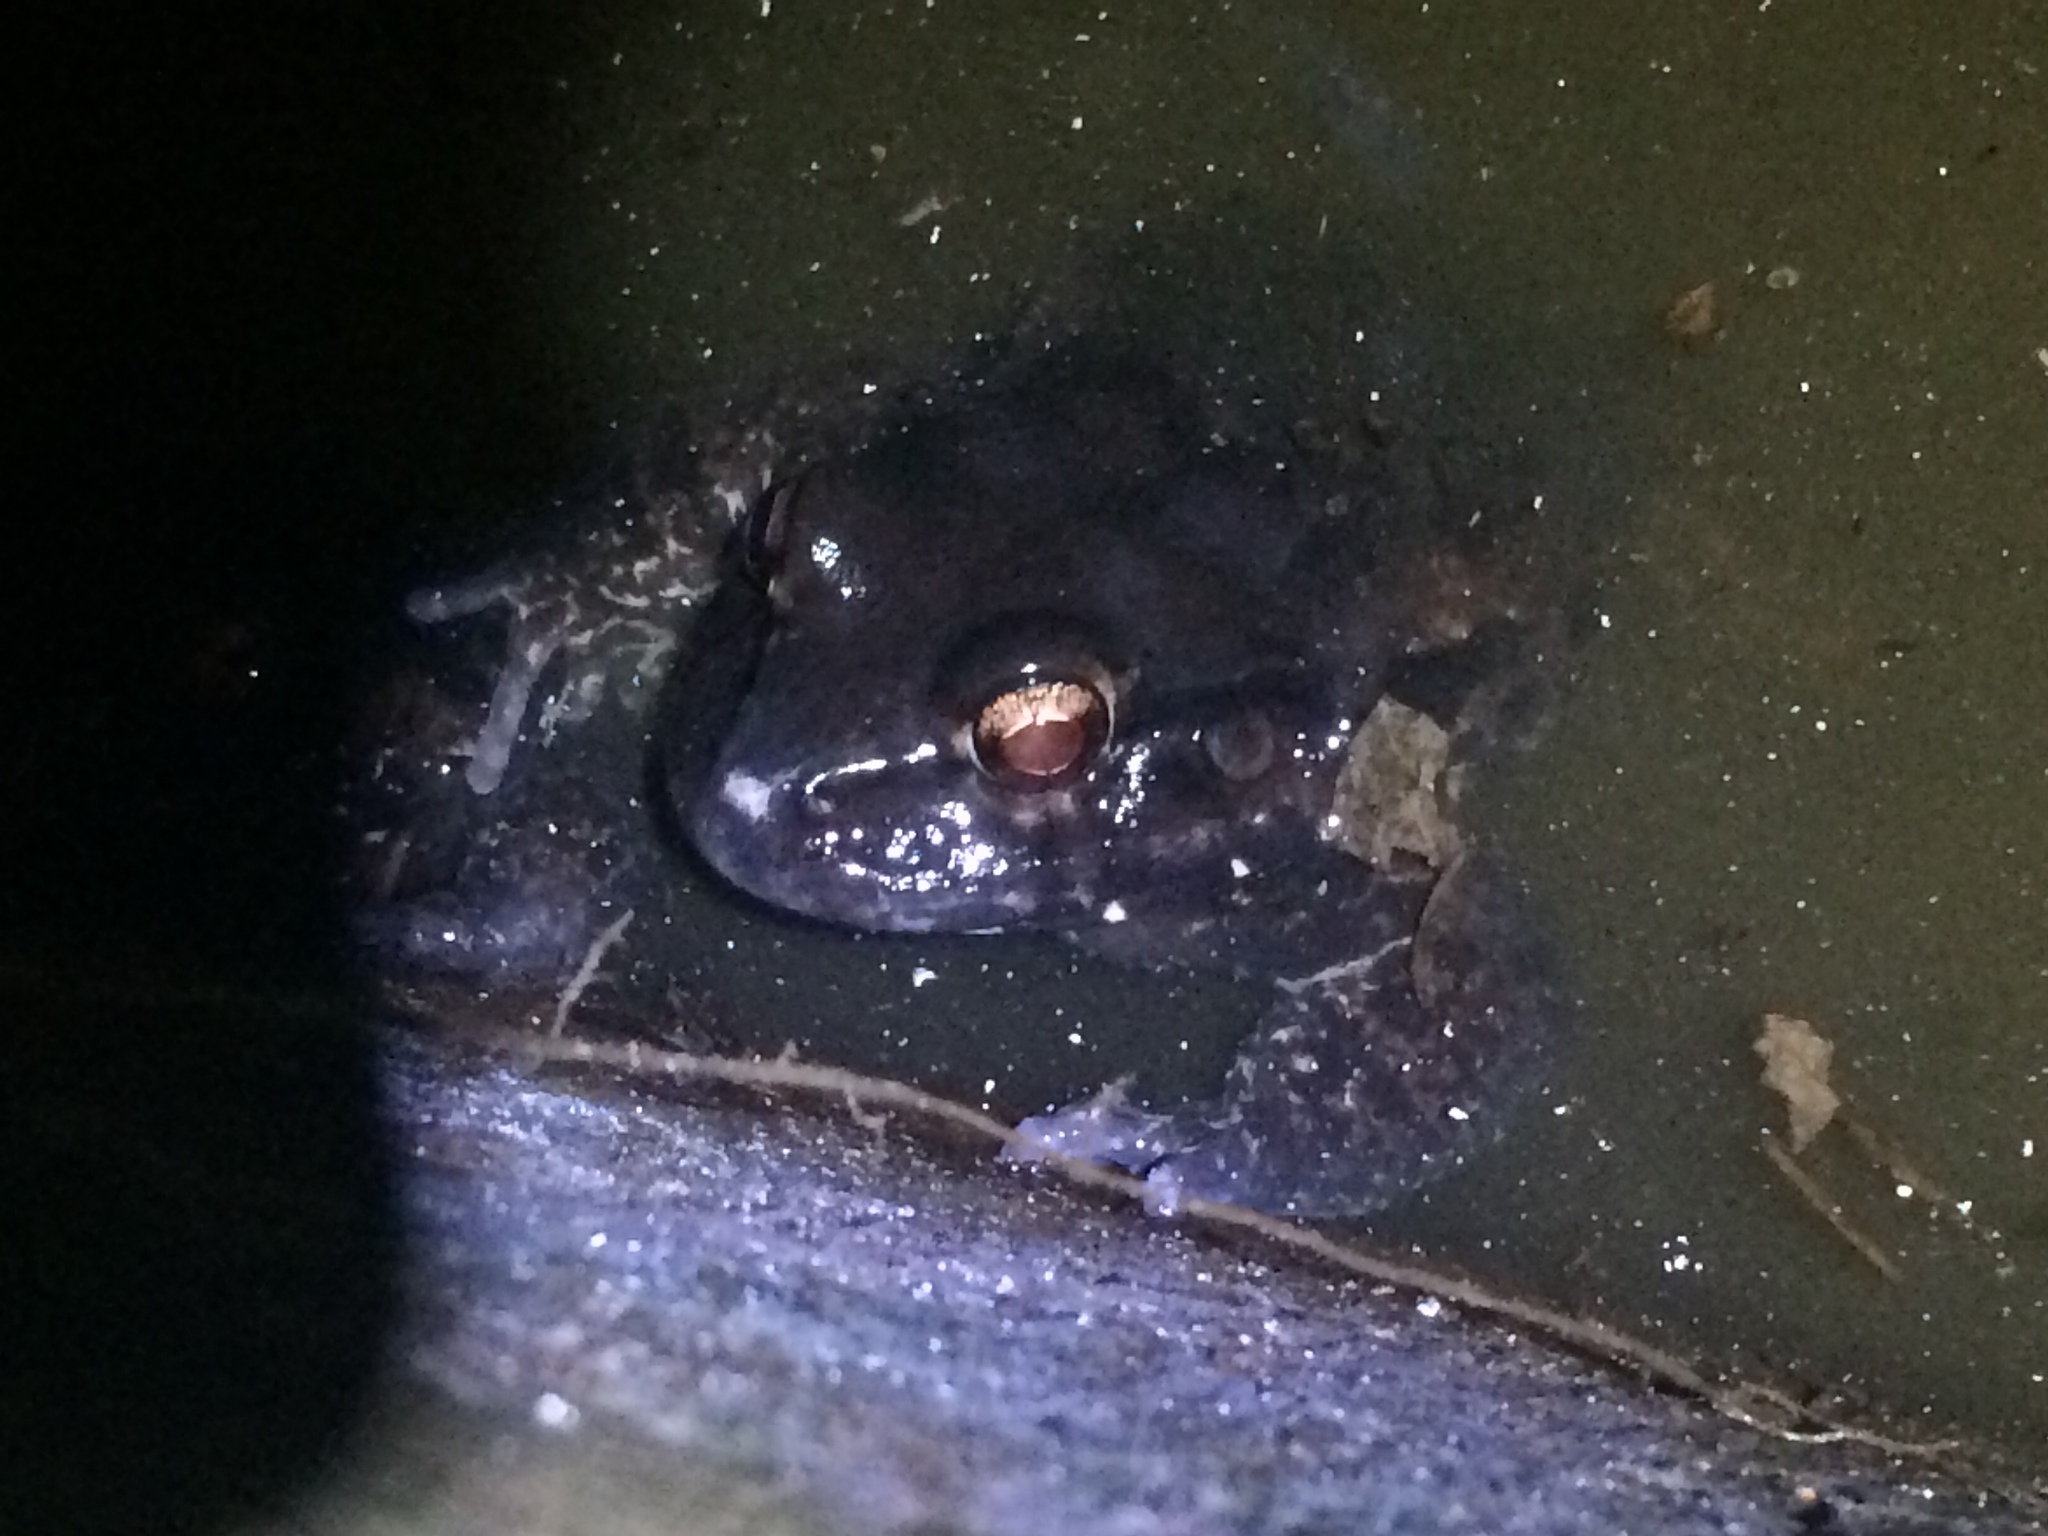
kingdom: Animalia
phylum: Chordata
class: Amphibia
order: Anura
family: Leptodactylidae
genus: Leptodactylus
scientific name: Leptodactylus vastus
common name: Northeastern pepper frog
